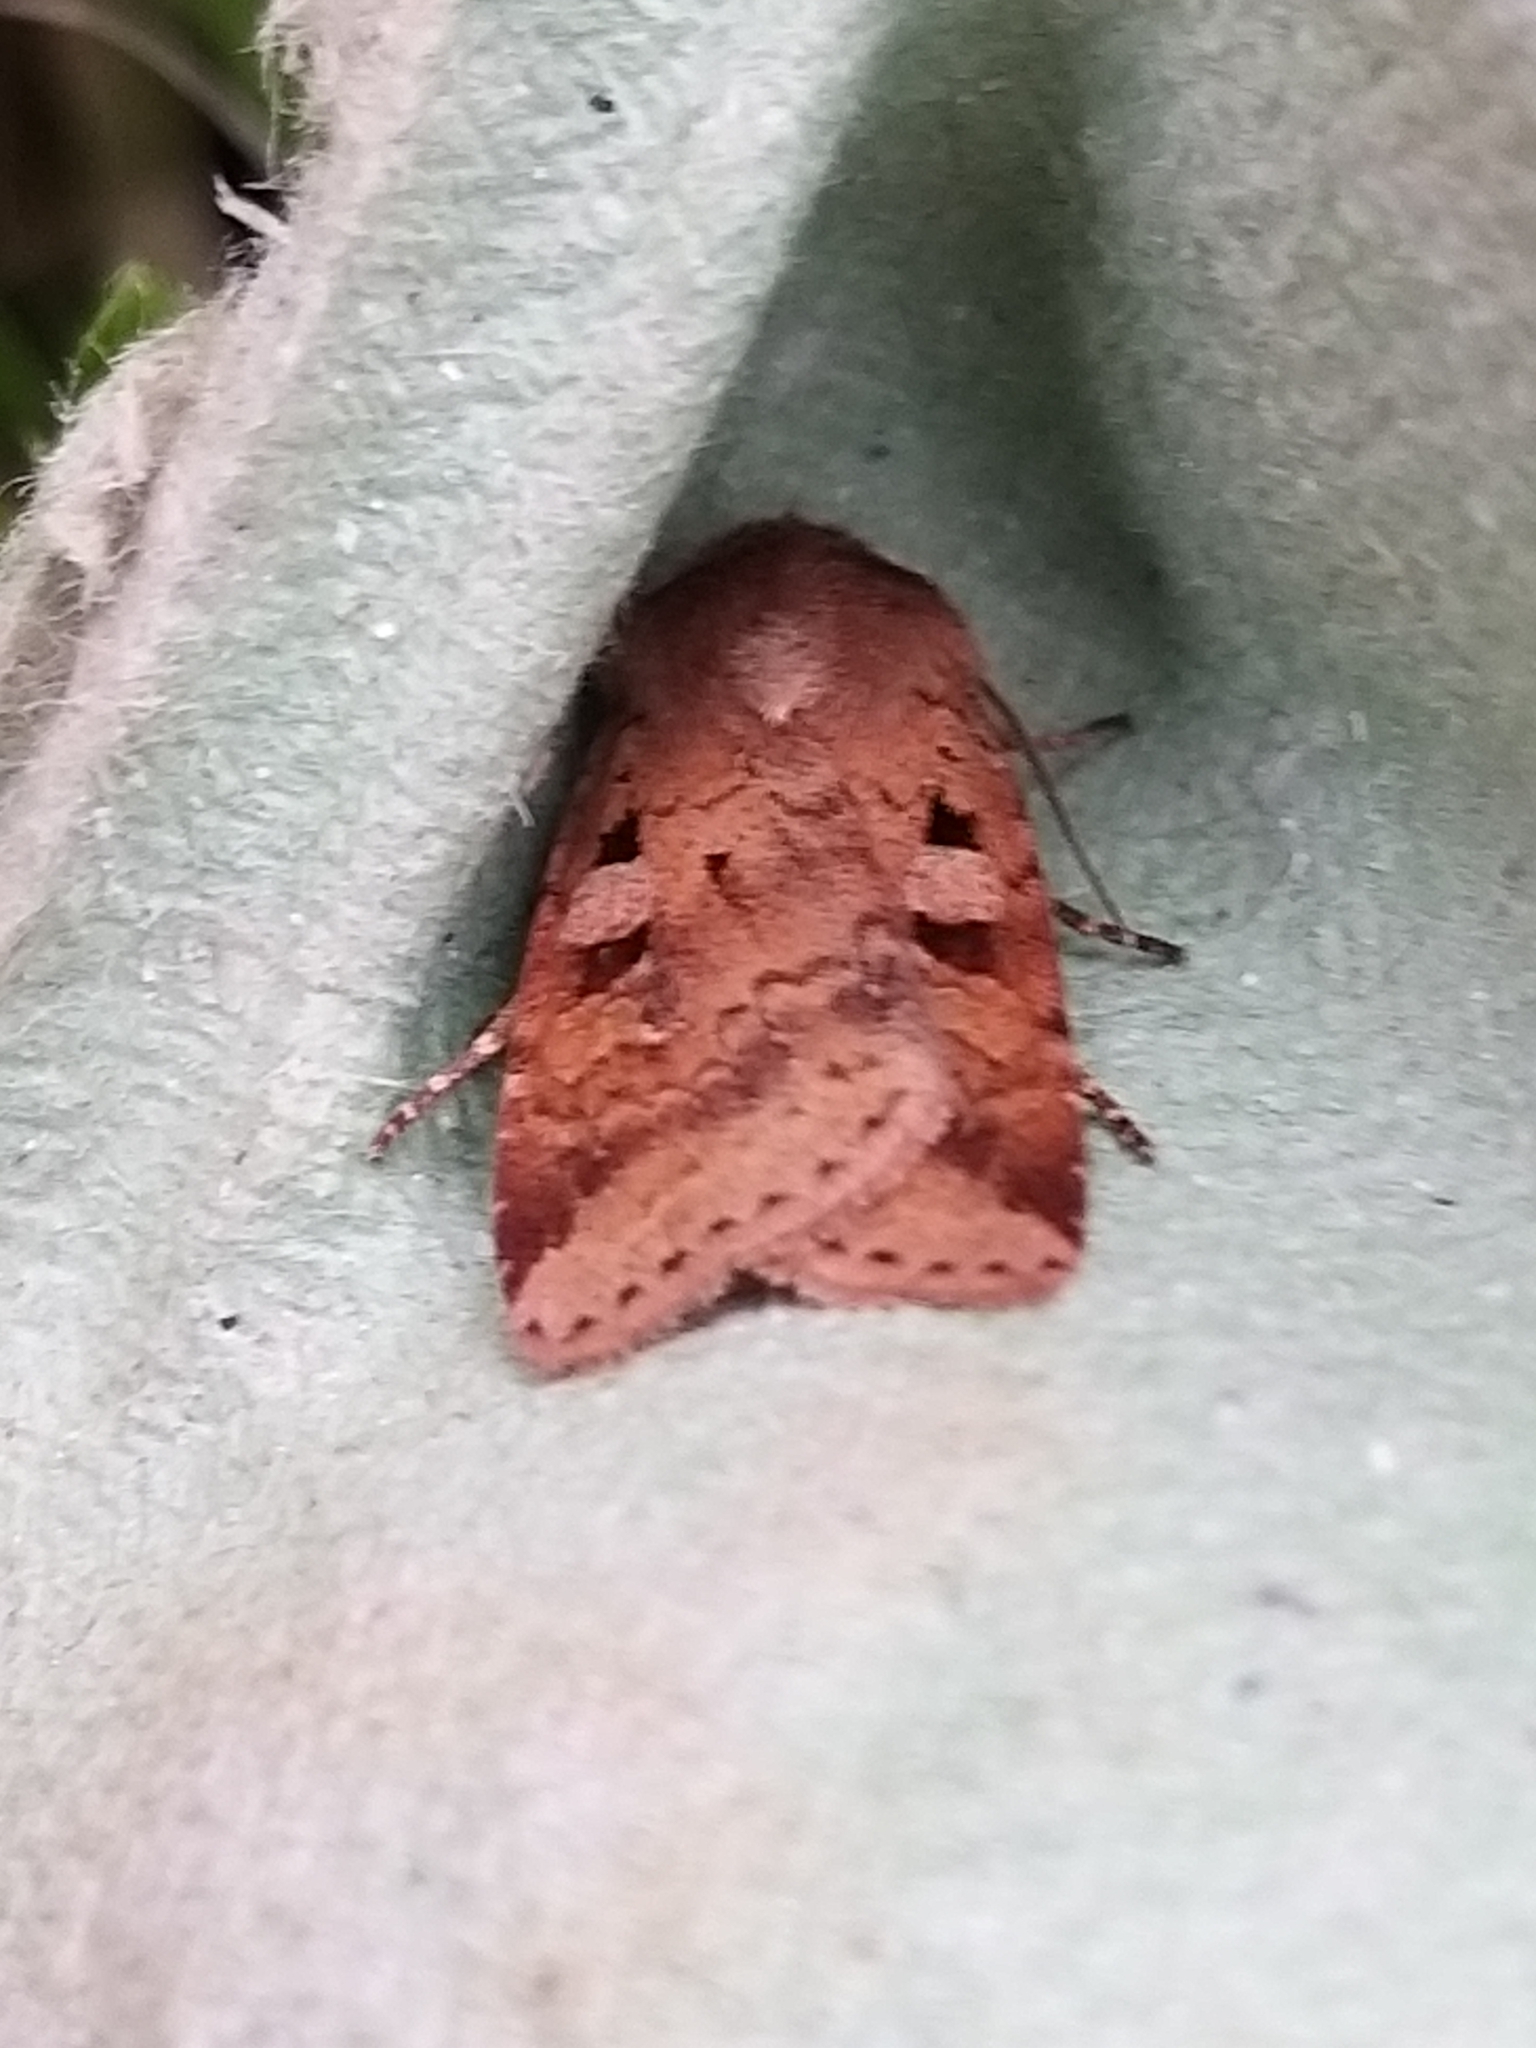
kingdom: Animalia
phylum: Arthropoda
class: Insecta
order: Lepidoptera
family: Noctuidae
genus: Diarsia
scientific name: Diarsia mendica
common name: Ingrailed clay
